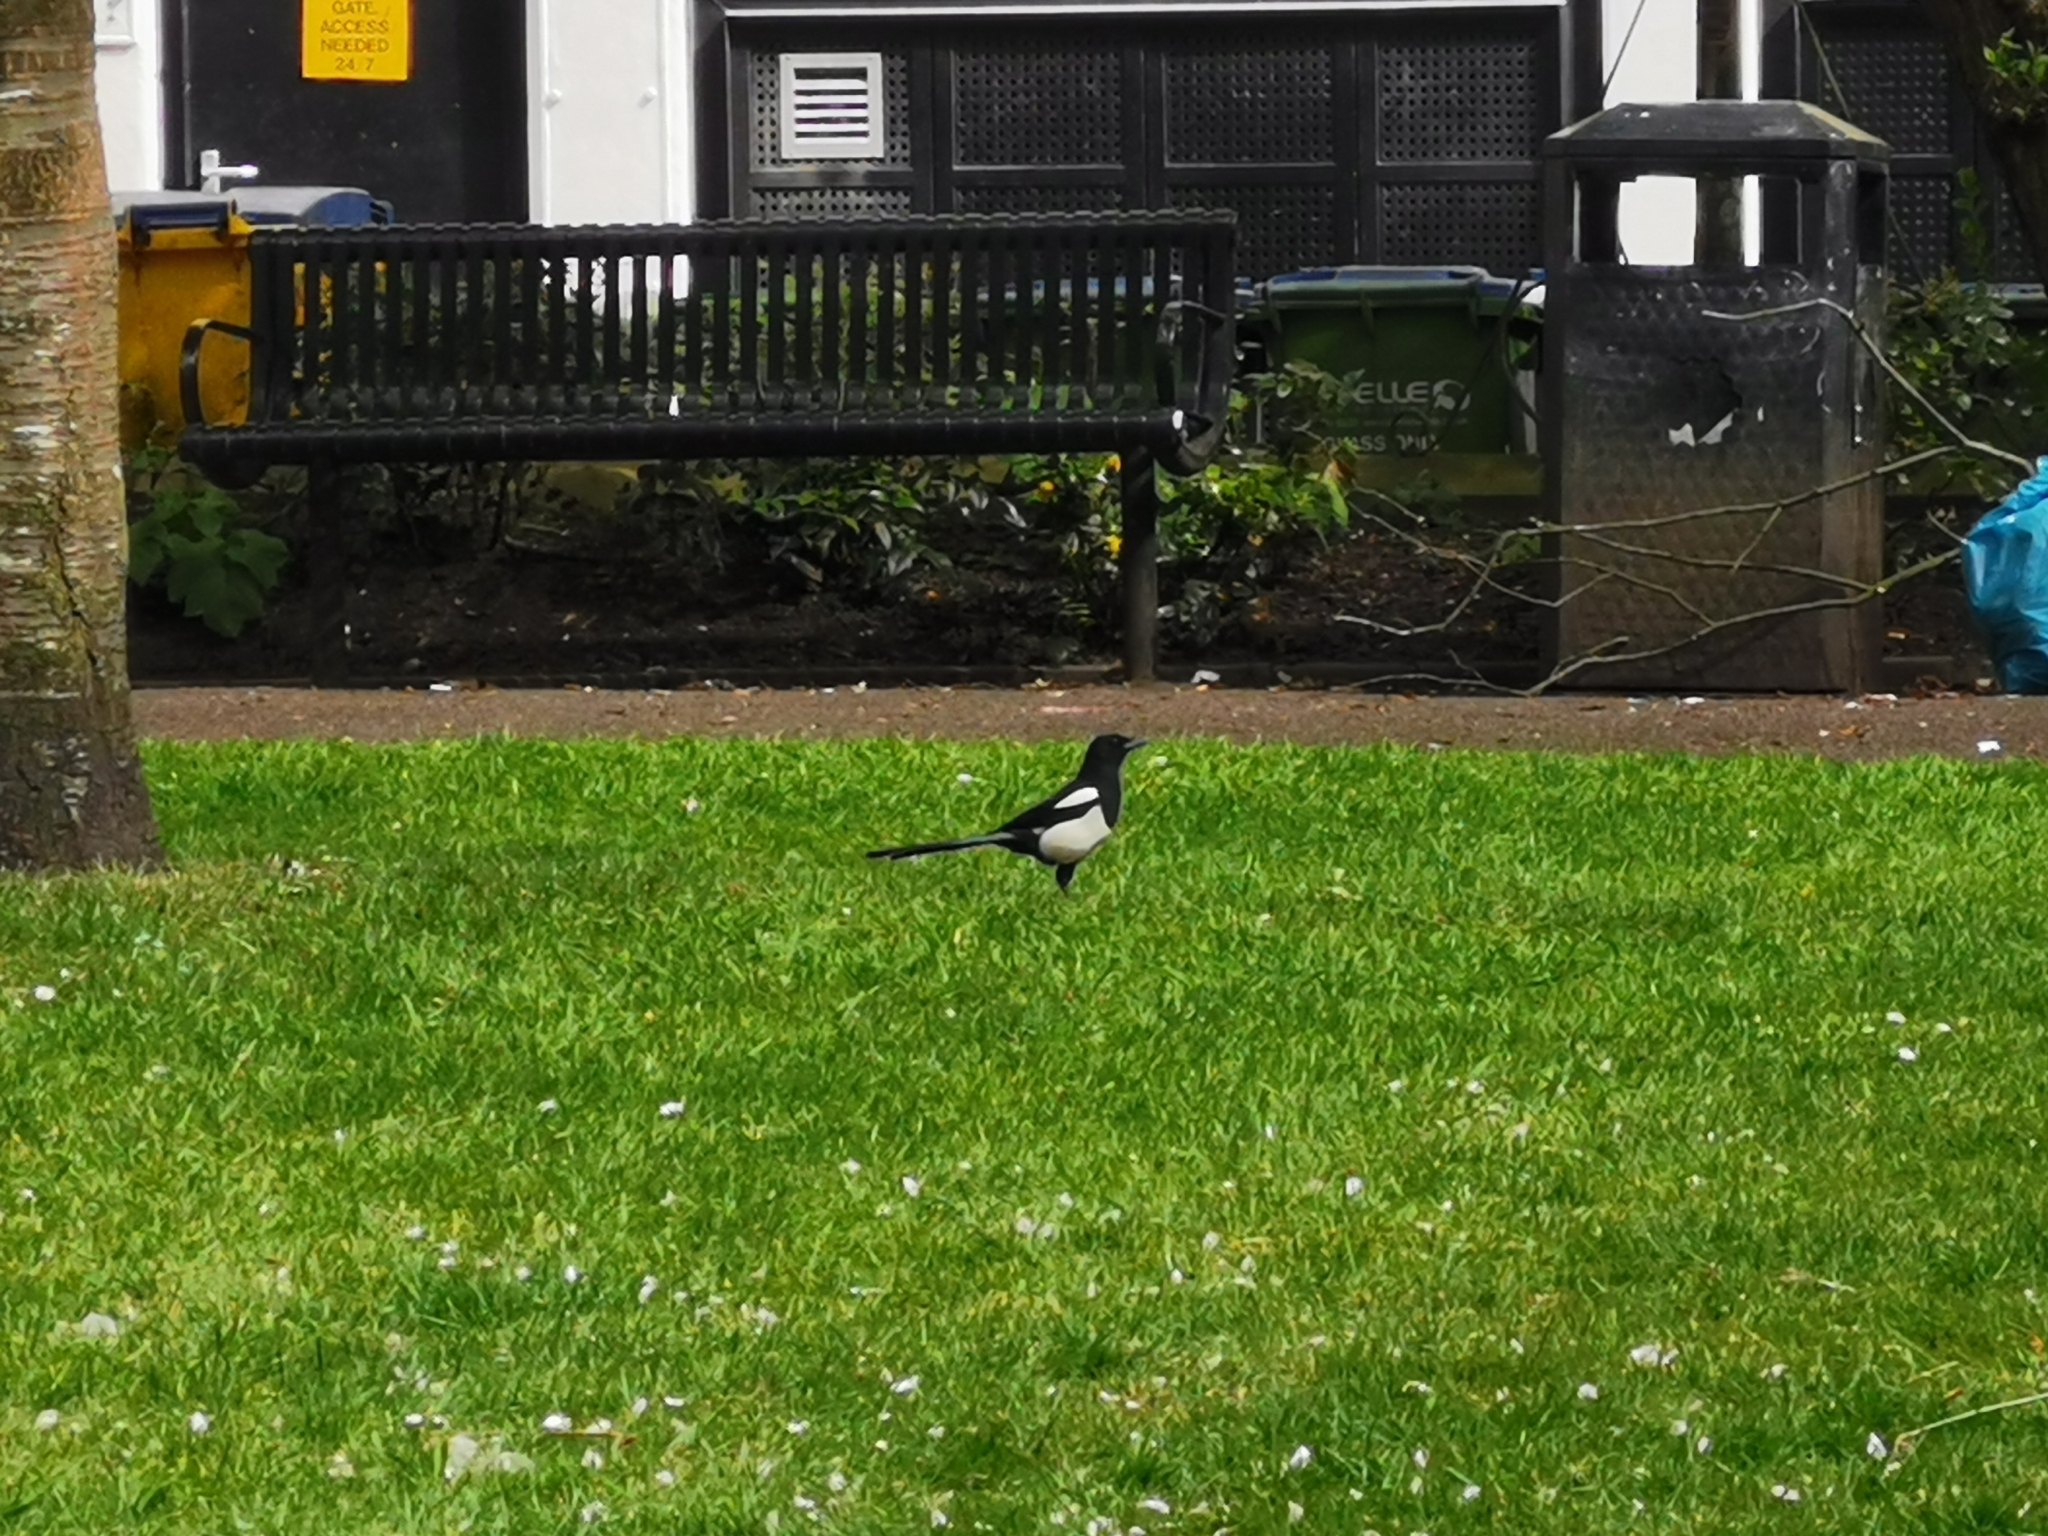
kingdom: Animalia
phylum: Chordata
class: Aves
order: Passeriformes
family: Corvidae
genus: Pica
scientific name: Pica pica
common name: Eurasian magpie
